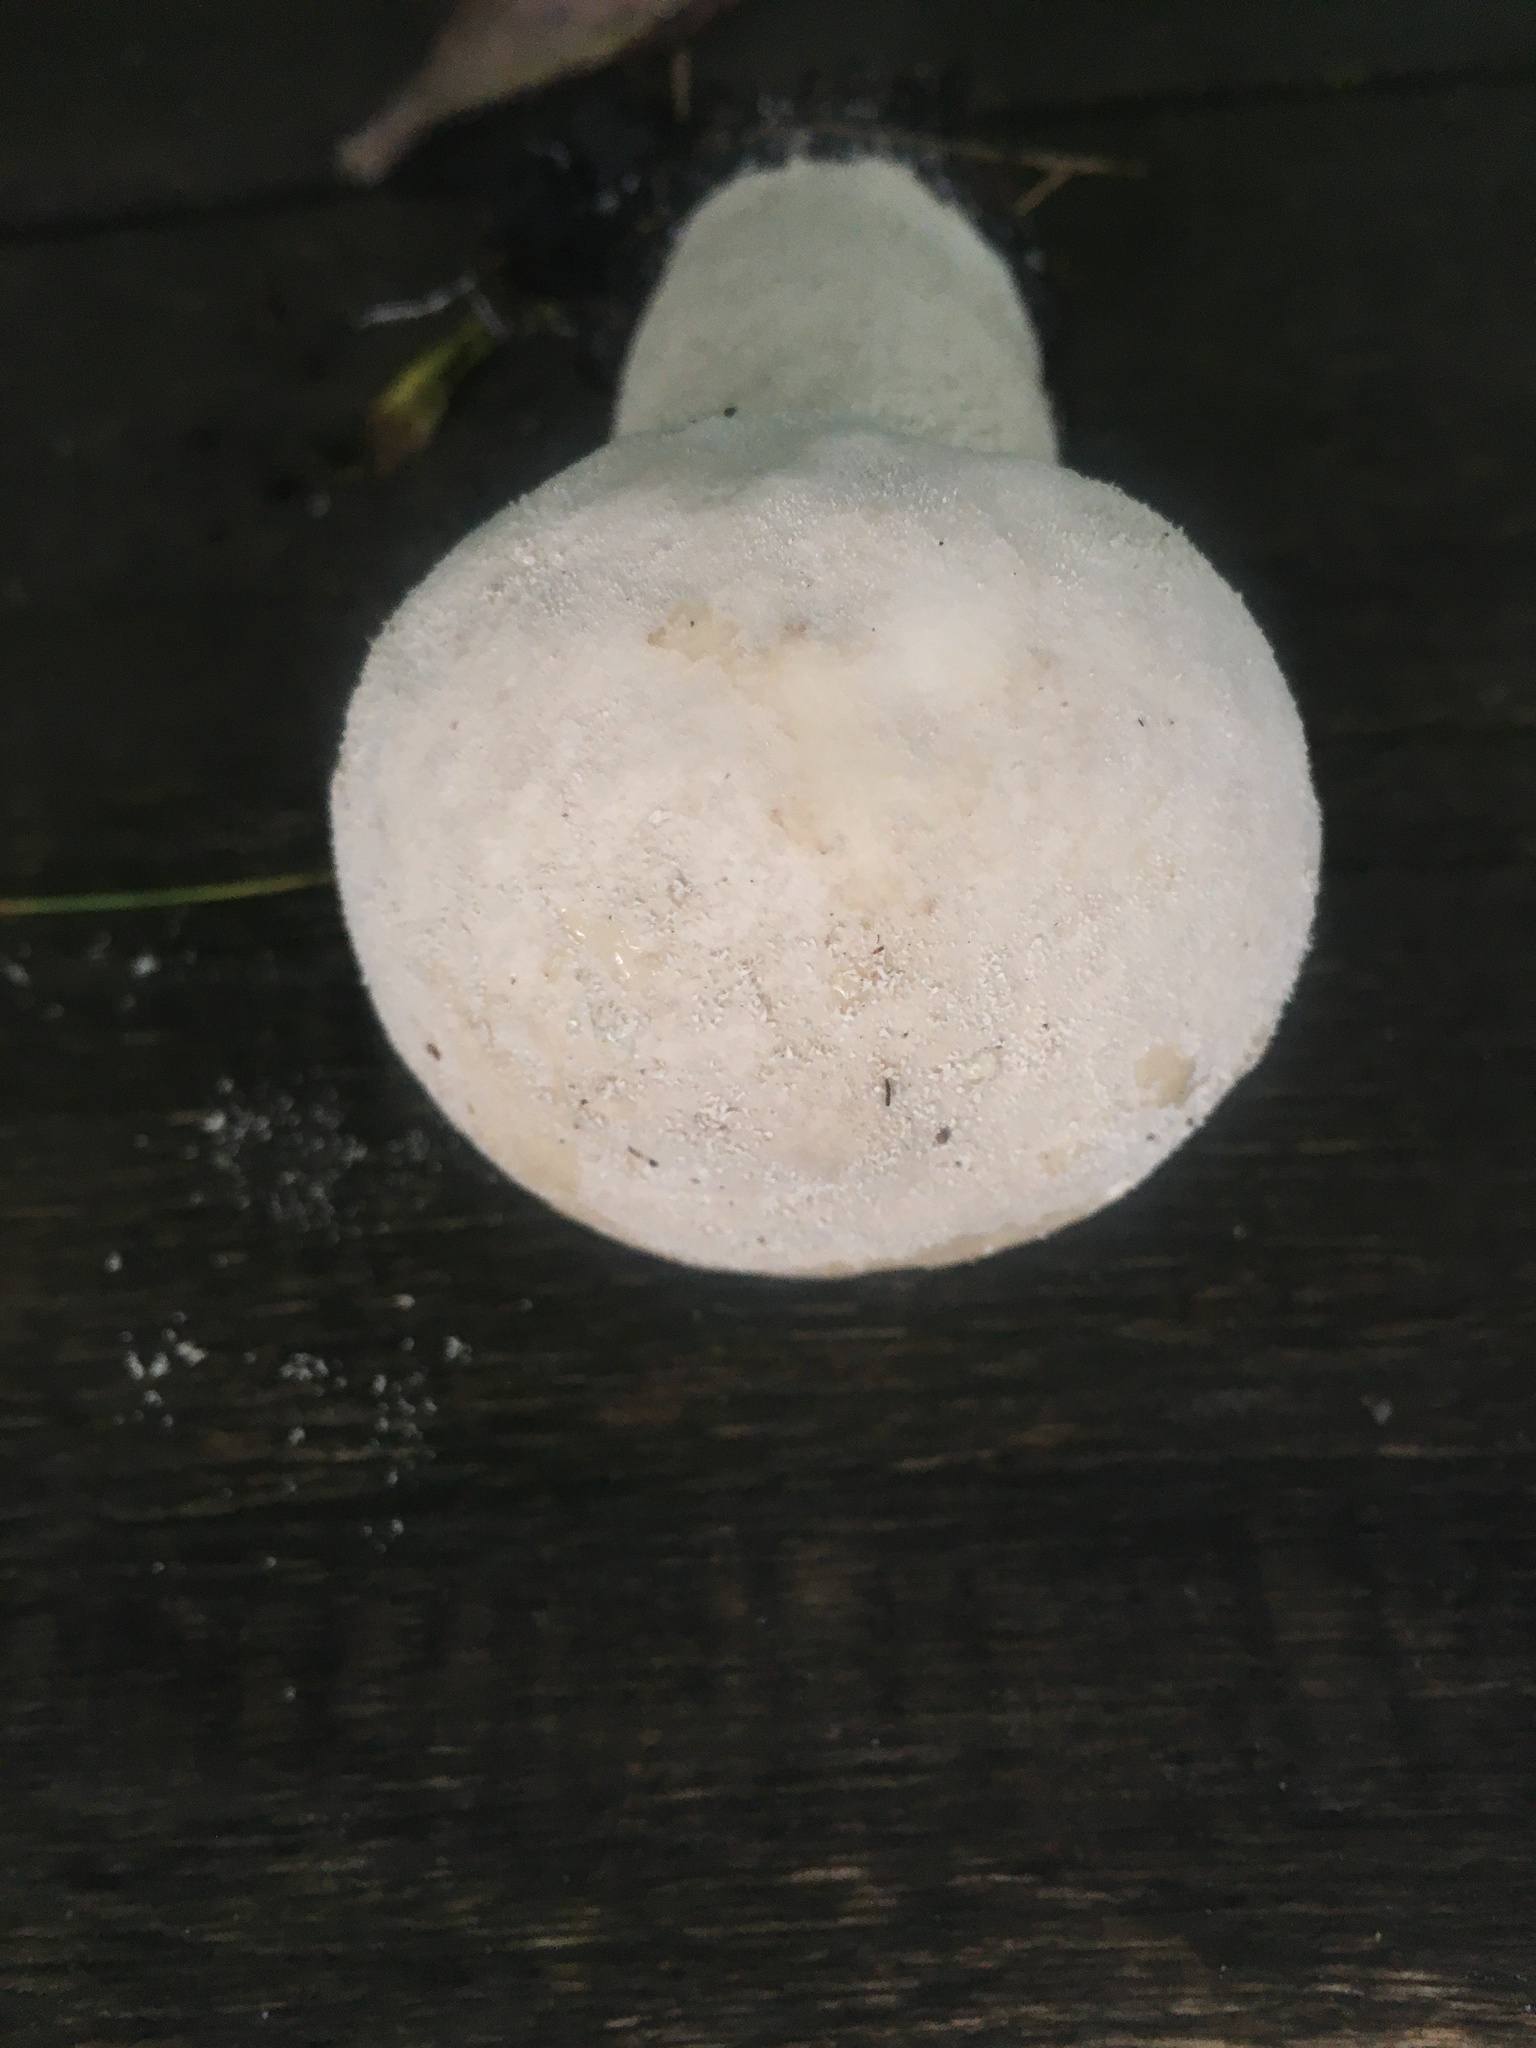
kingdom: Fungi
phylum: Basidiomycota
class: Agaricomycetes
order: Agaricales
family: Lycoperdaceae
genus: Lycoperdon
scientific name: Lycoperdon excipuliforme
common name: Pestle puffball
